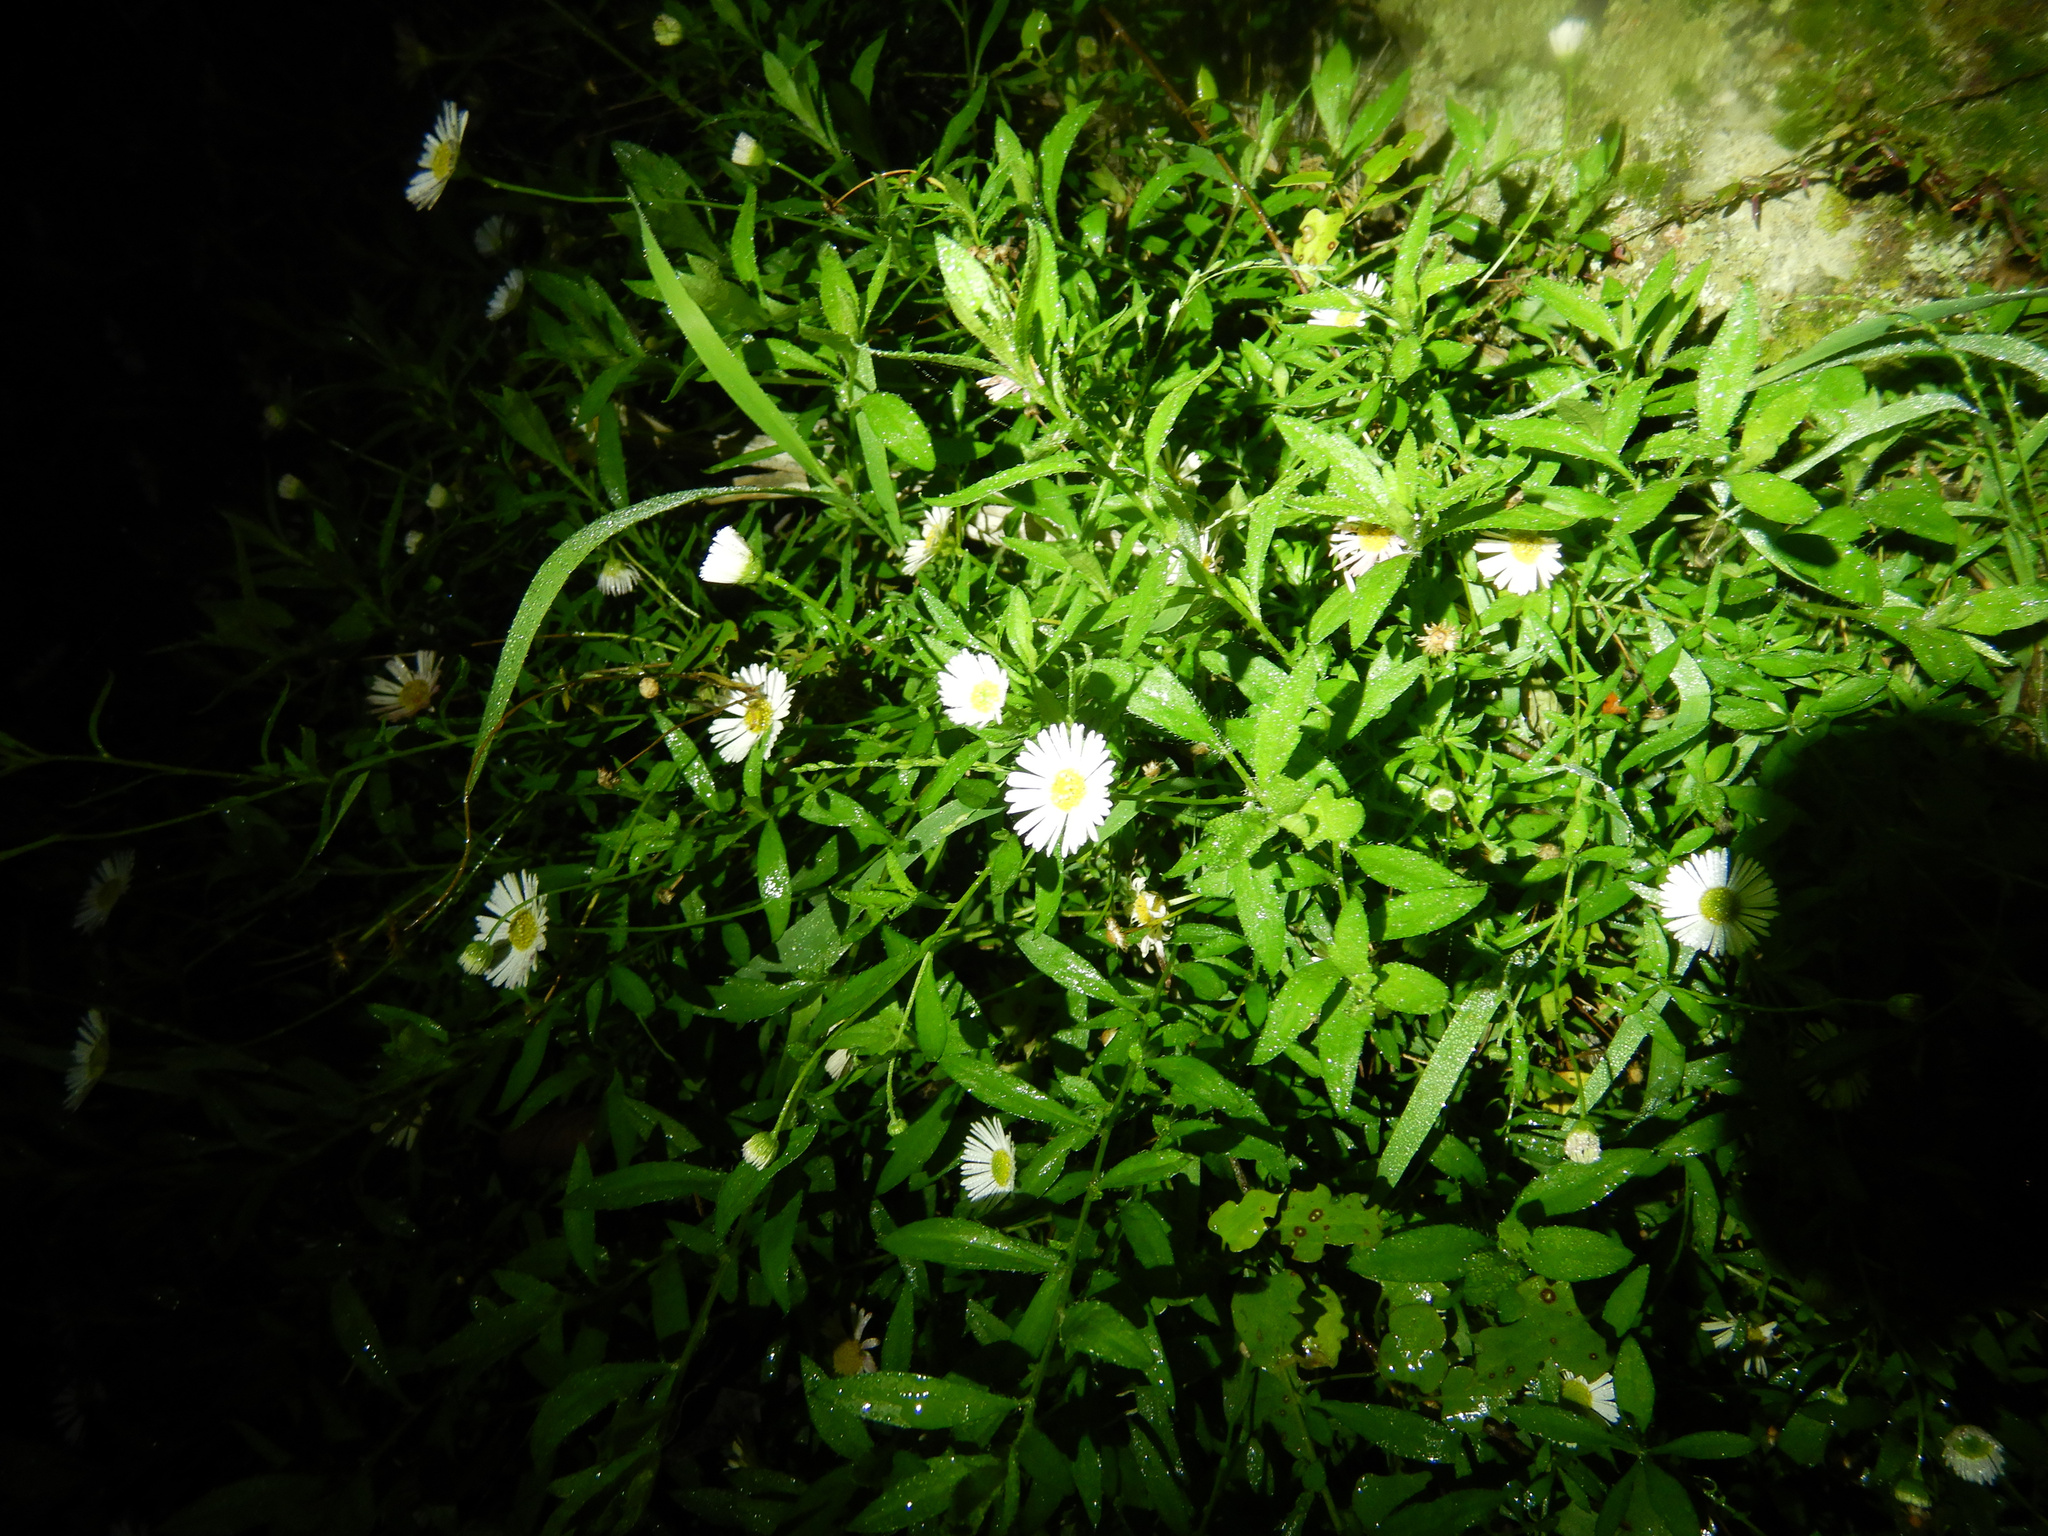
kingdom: Plantae
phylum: Tracheophyta
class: Magnoliopsida
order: Asterales
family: Asteraceae
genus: Erigeron
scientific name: Erigeron karvinskianus
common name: Mexican fleabane
